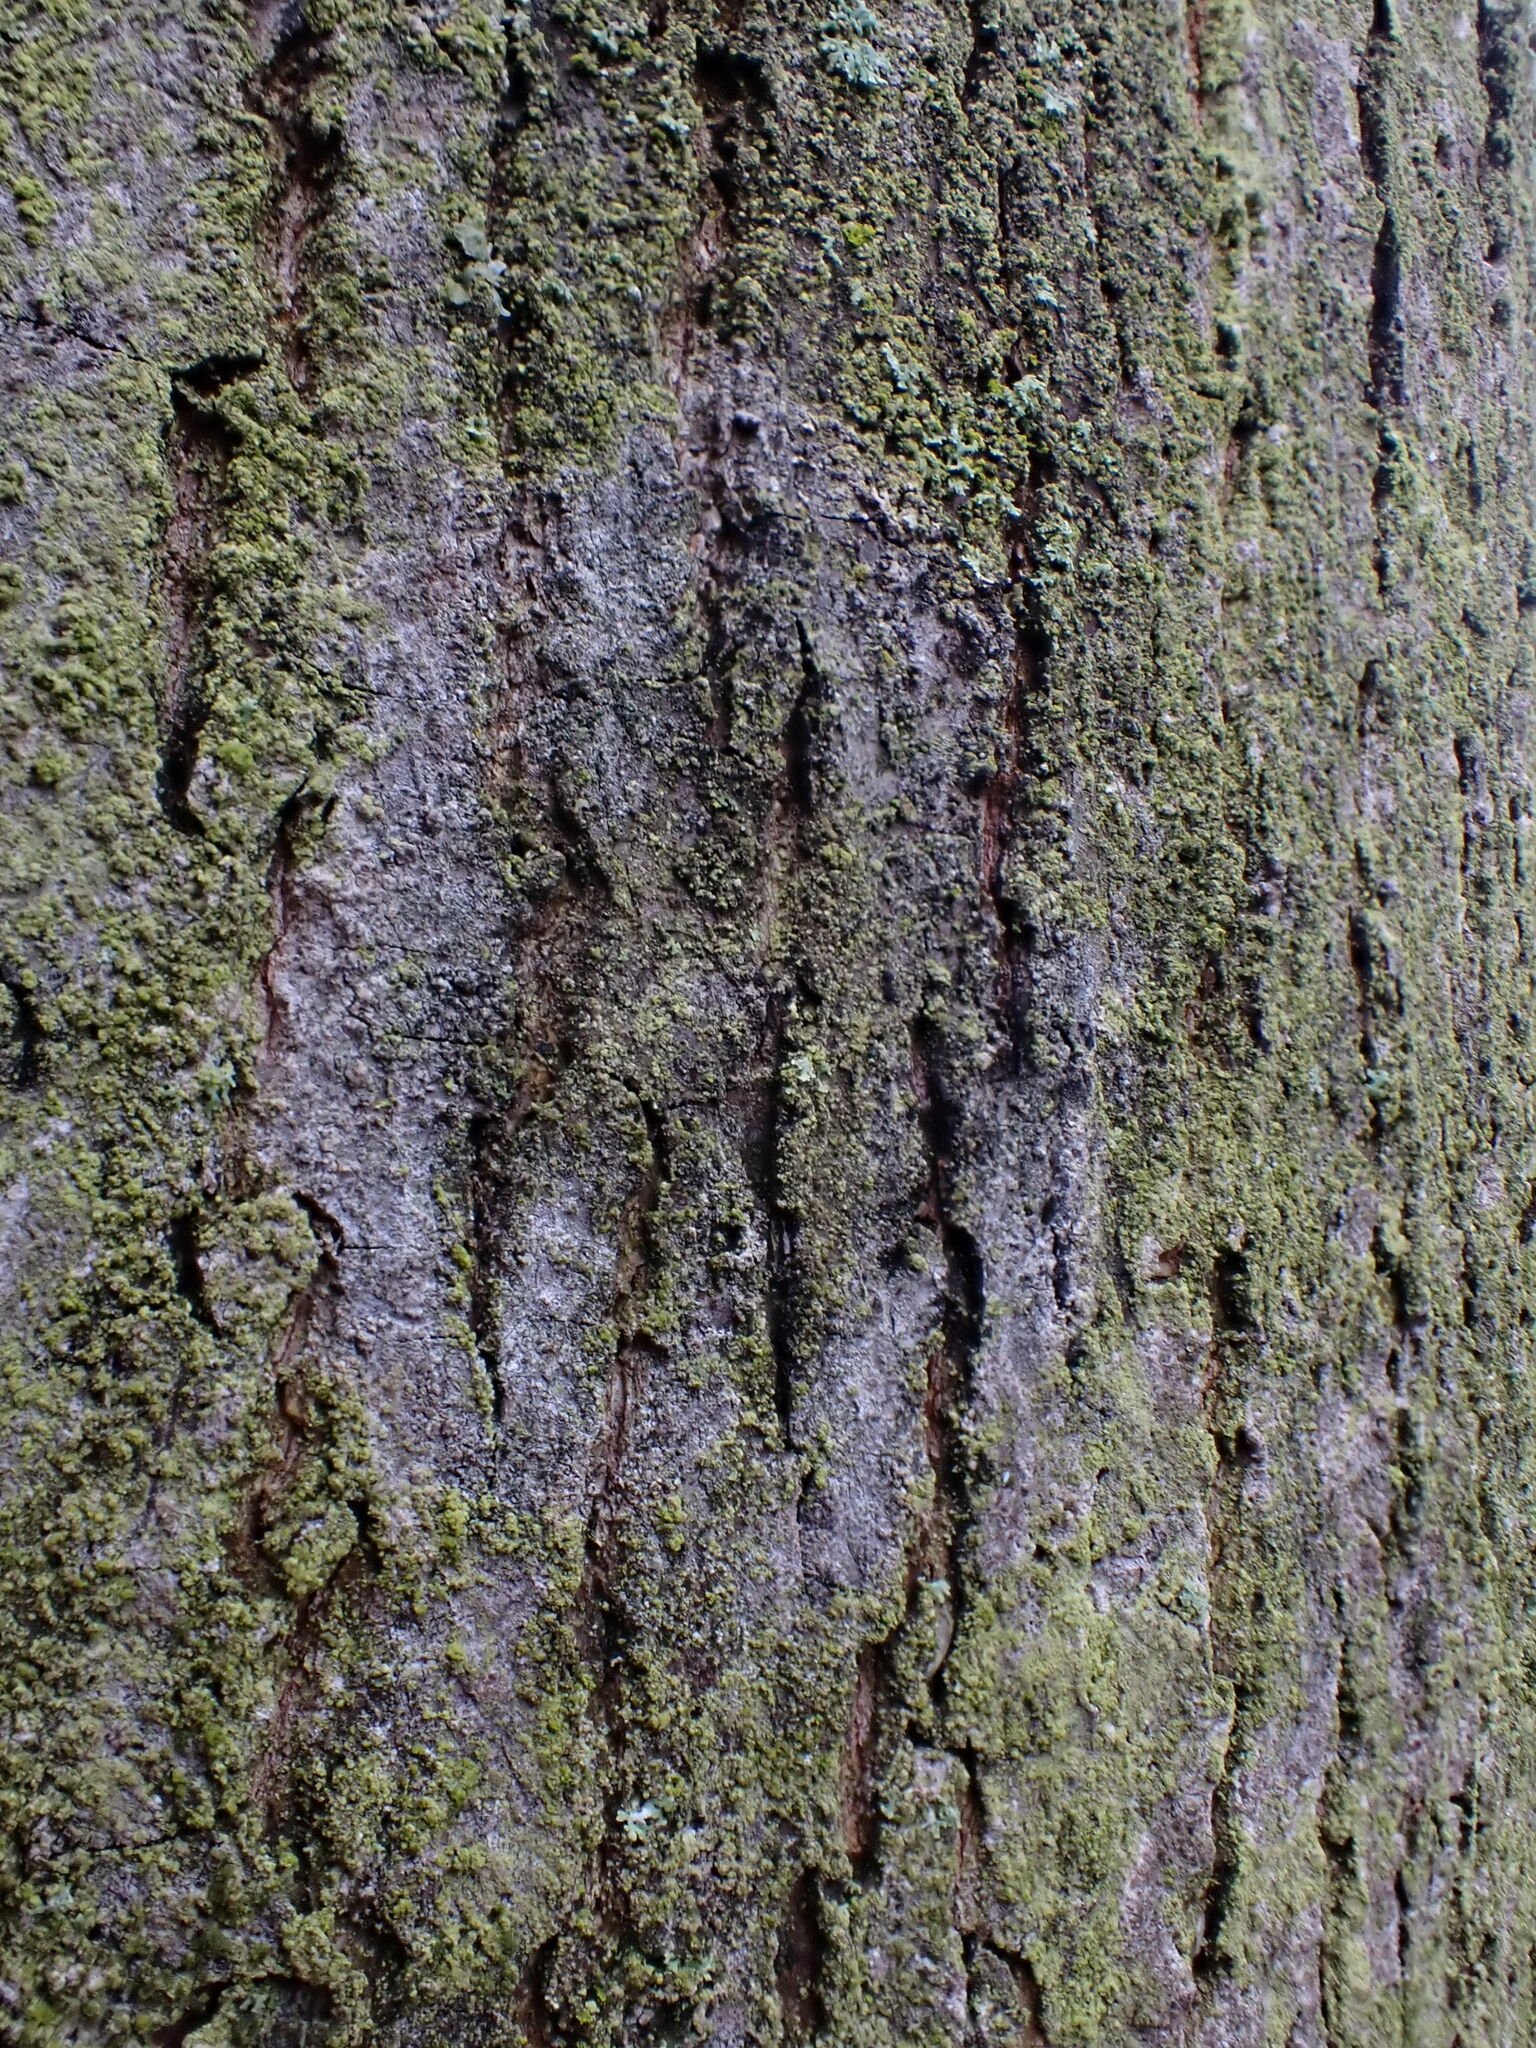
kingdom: Fungi
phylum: Basidiomycota
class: Agaricomycetes
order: Atheliales
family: Atheliaceae
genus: Athelia
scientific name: Athelia arachnoidea
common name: Candelabra duster
